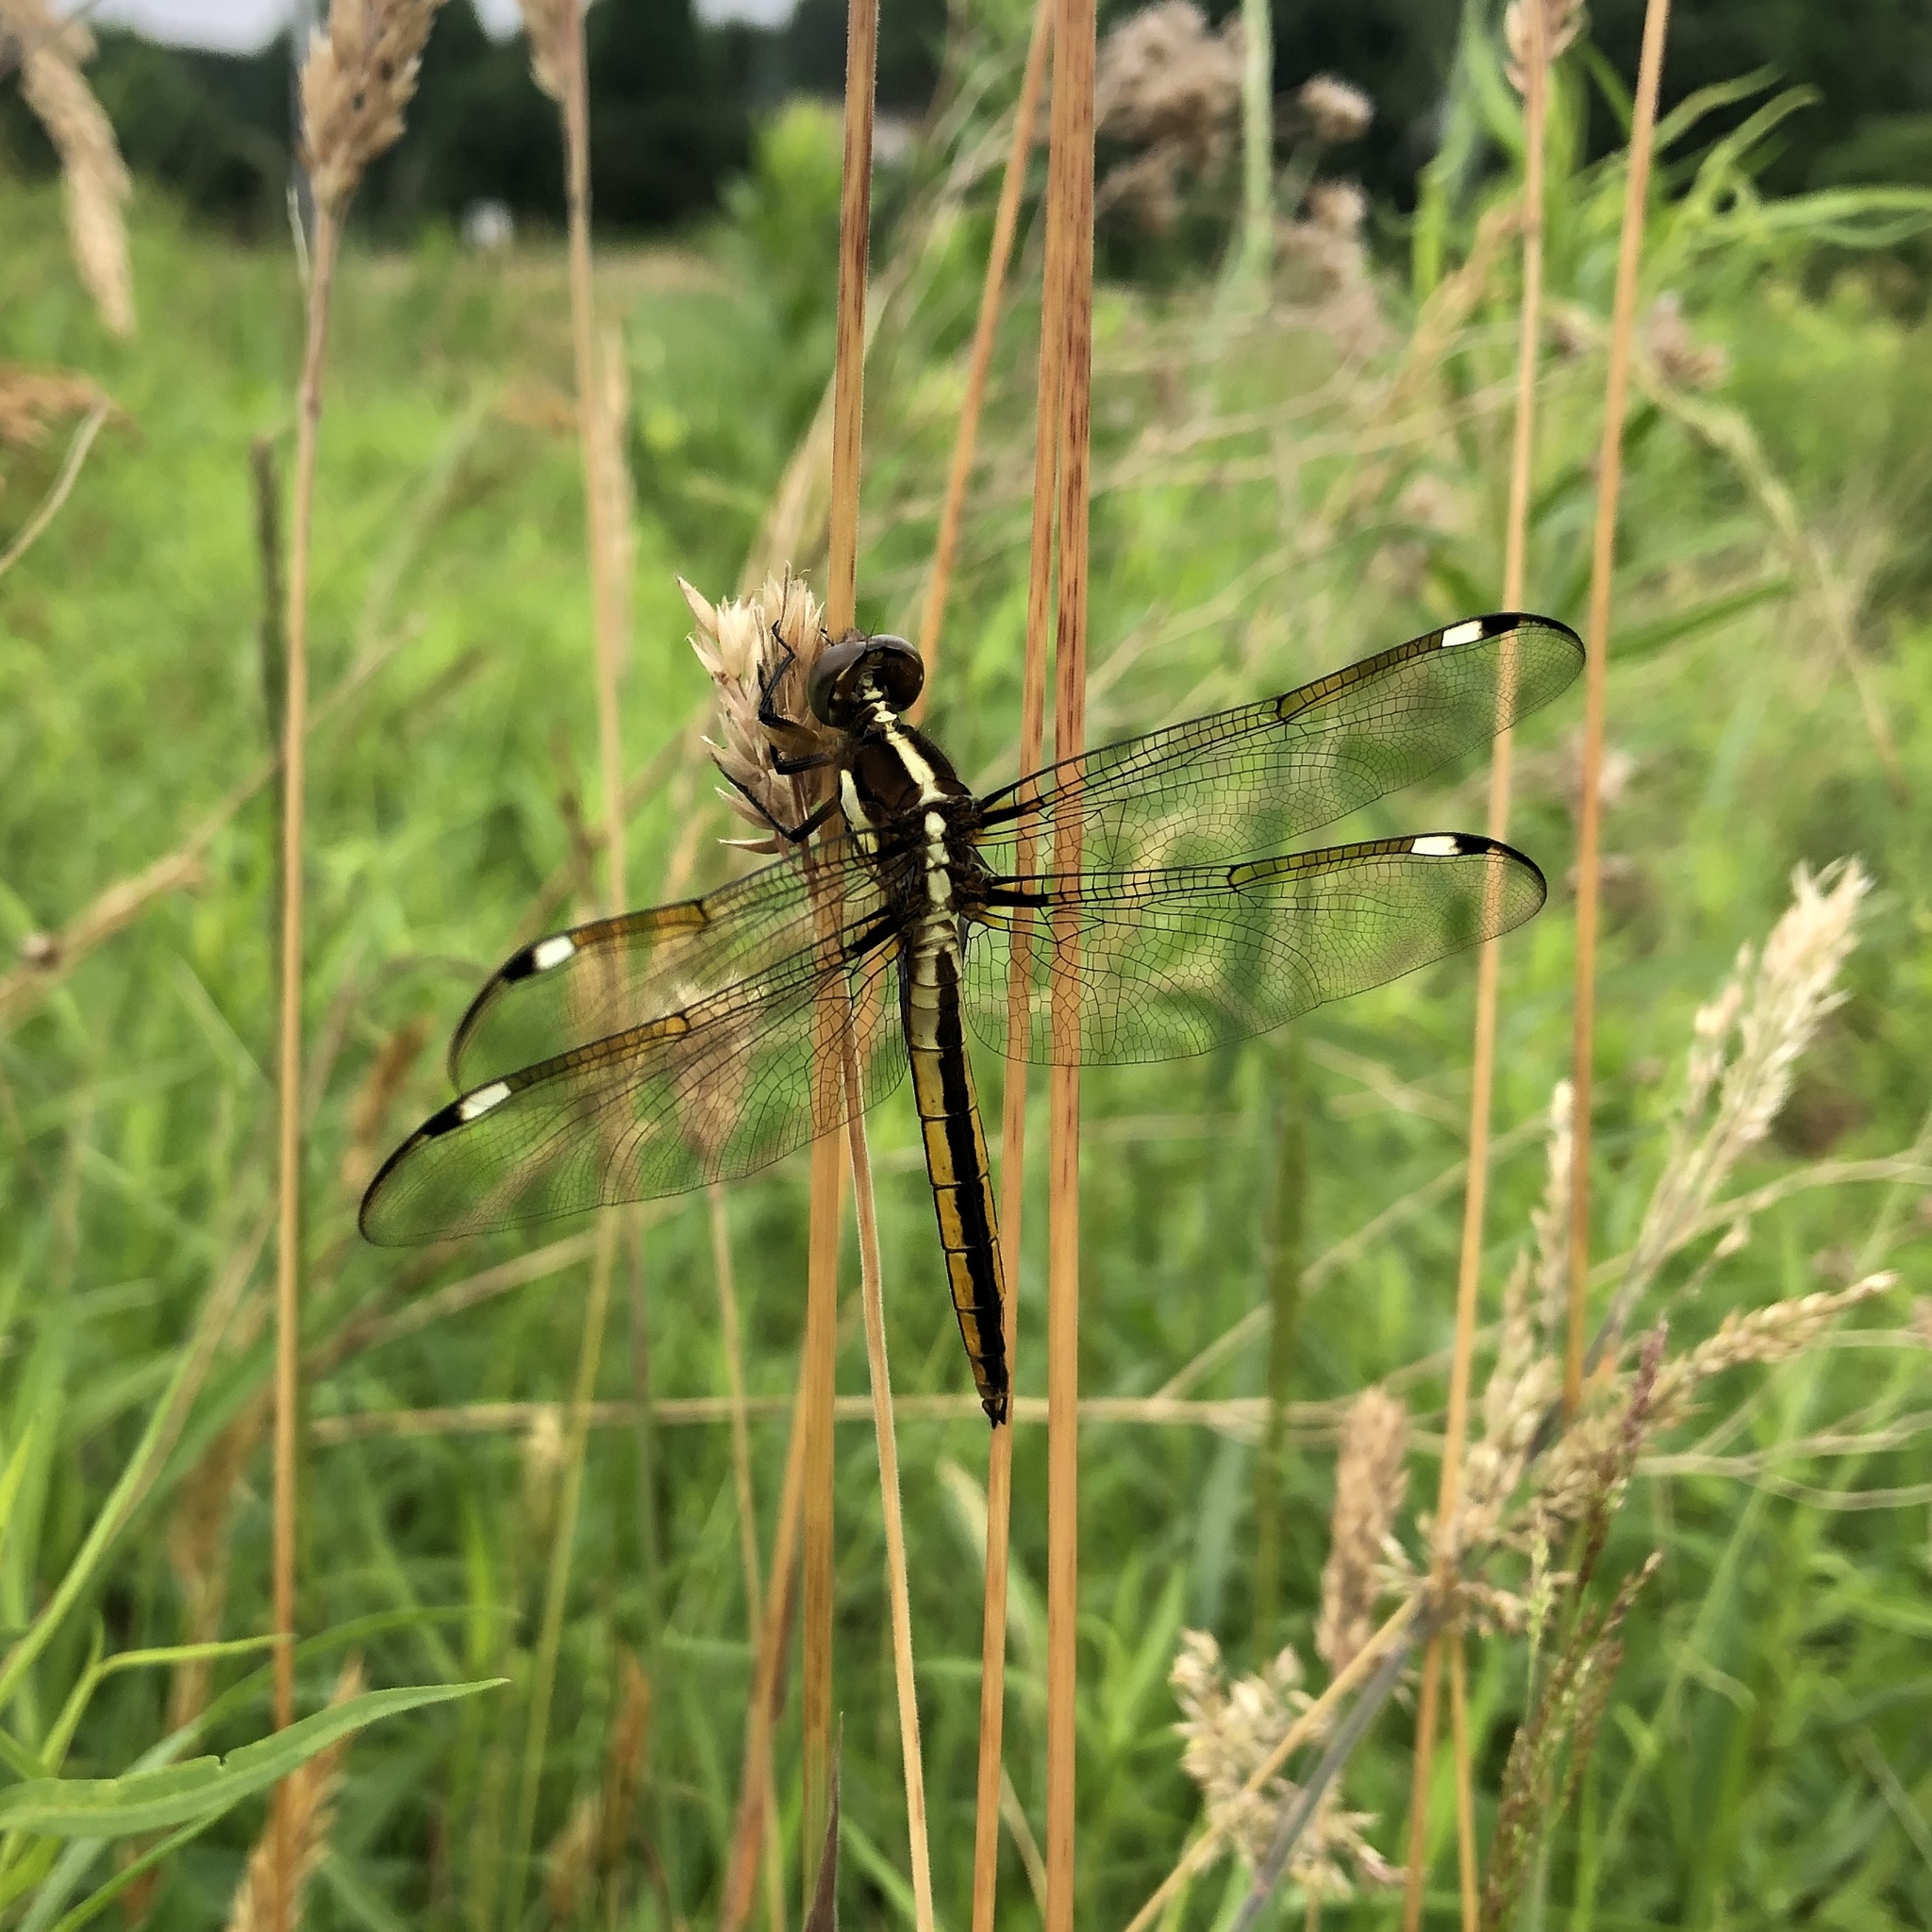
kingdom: Animalia
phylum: Arthropoda
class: Insecta
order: Odonata
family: Libellulidae
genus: Libellula
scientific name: Libellula cyanea
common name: Spangled skimmer
